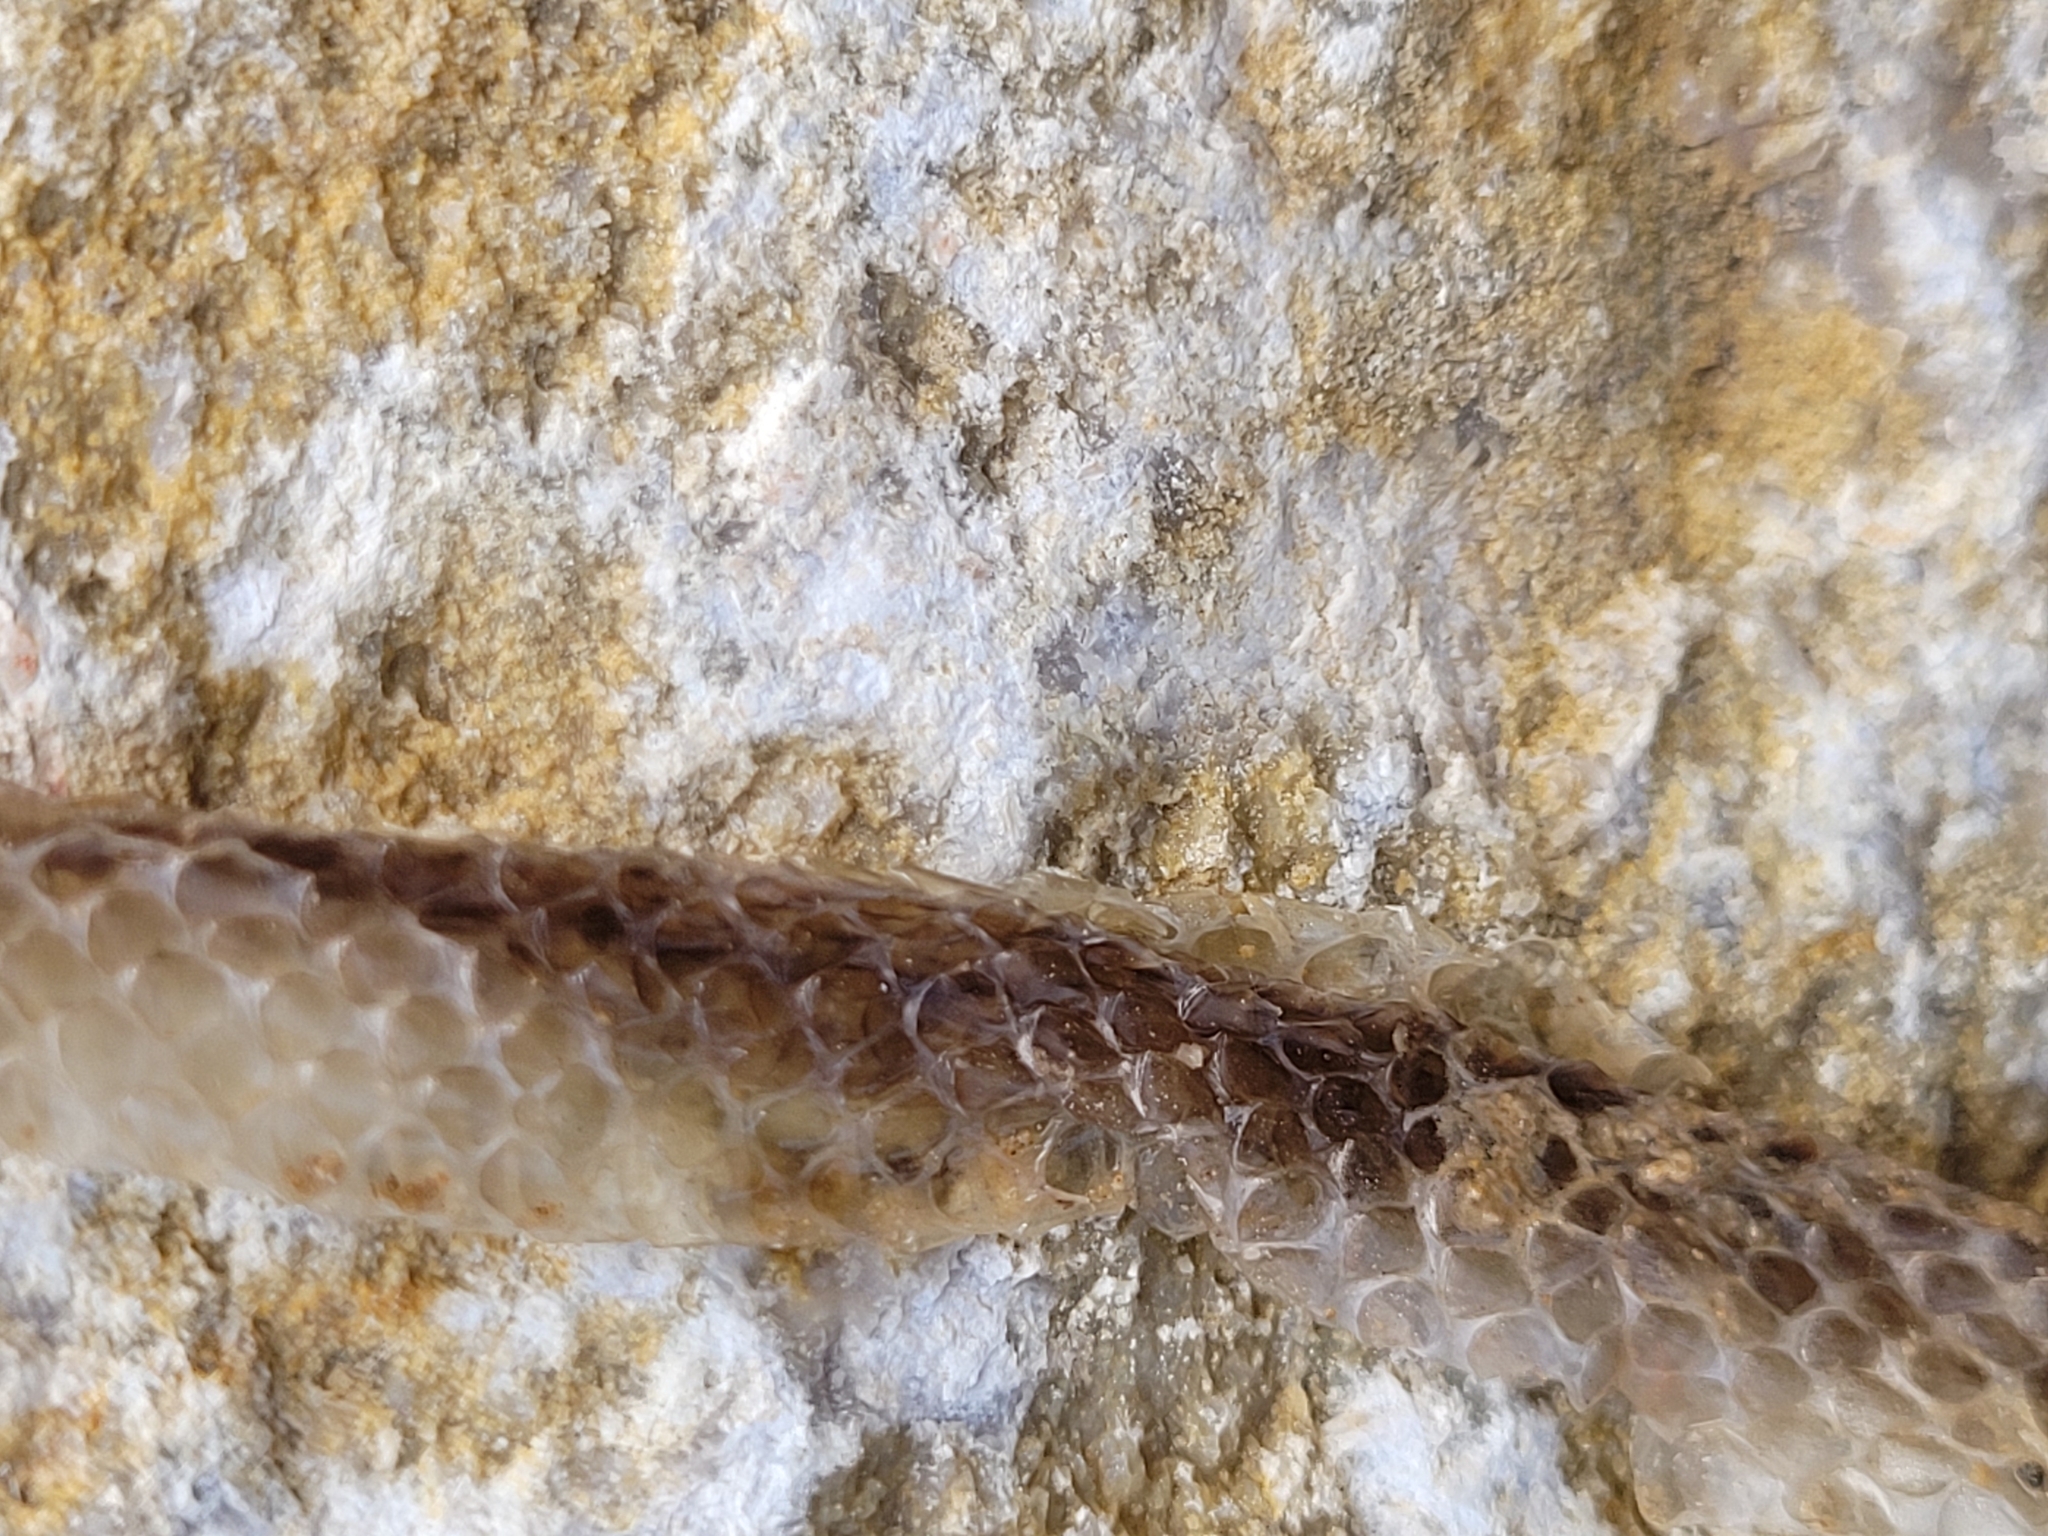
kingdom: Animalia
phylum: Chordata
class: Squamata
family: Colubridae
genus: Coronella
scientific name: Coronella austriaca
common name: Smooth snake
